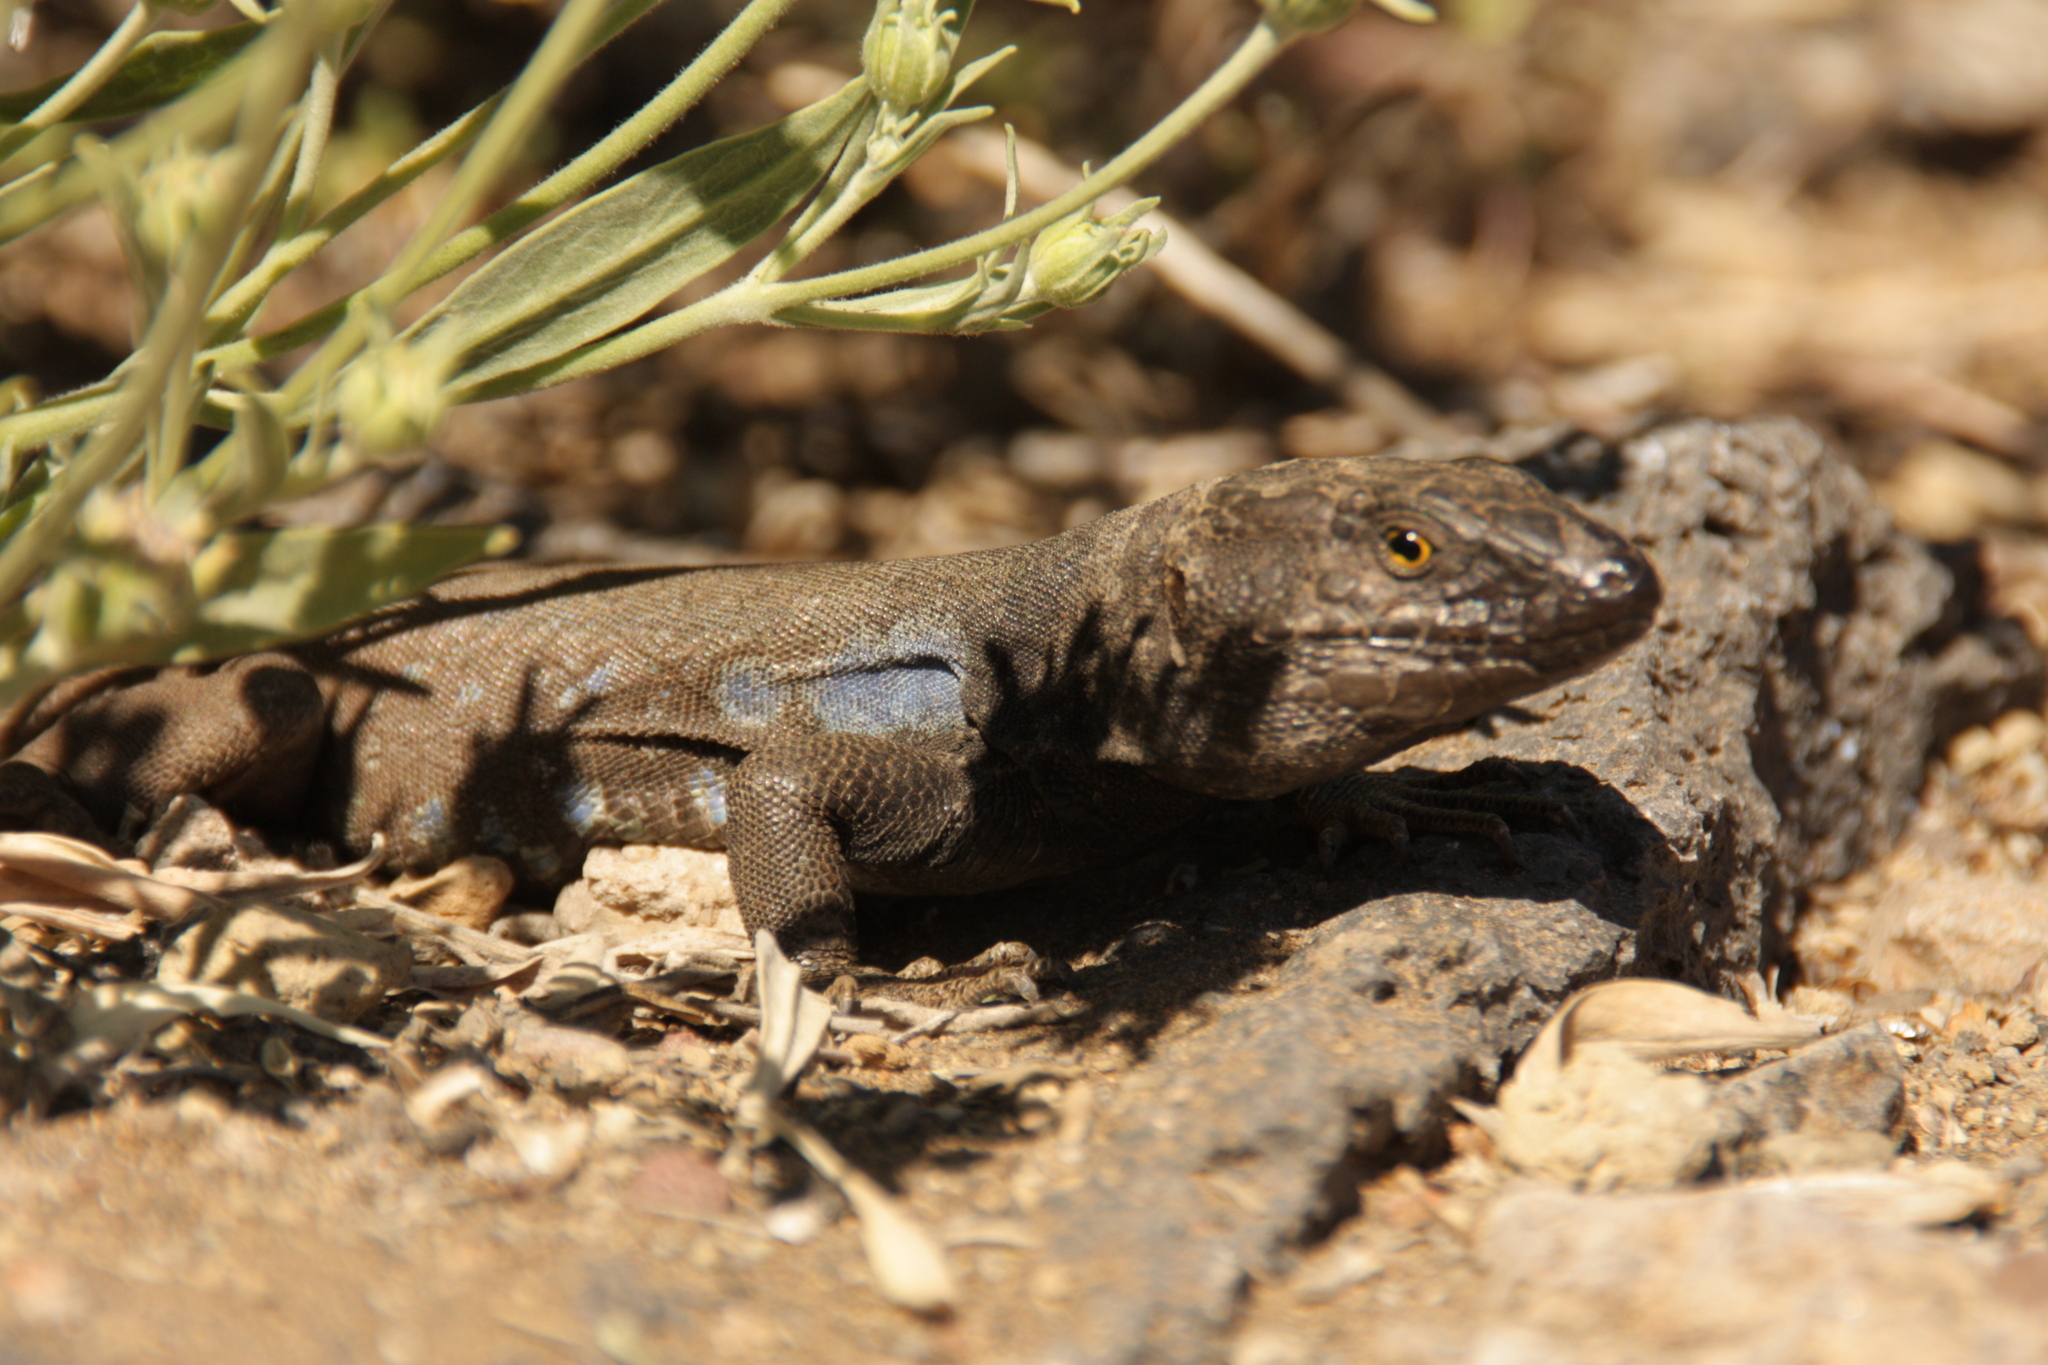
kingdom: Animalia
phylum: Chordata
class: Squamata
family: Lacertidae
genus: Gallotia
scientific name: Gallotia galloti
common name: Gallot's lizard
